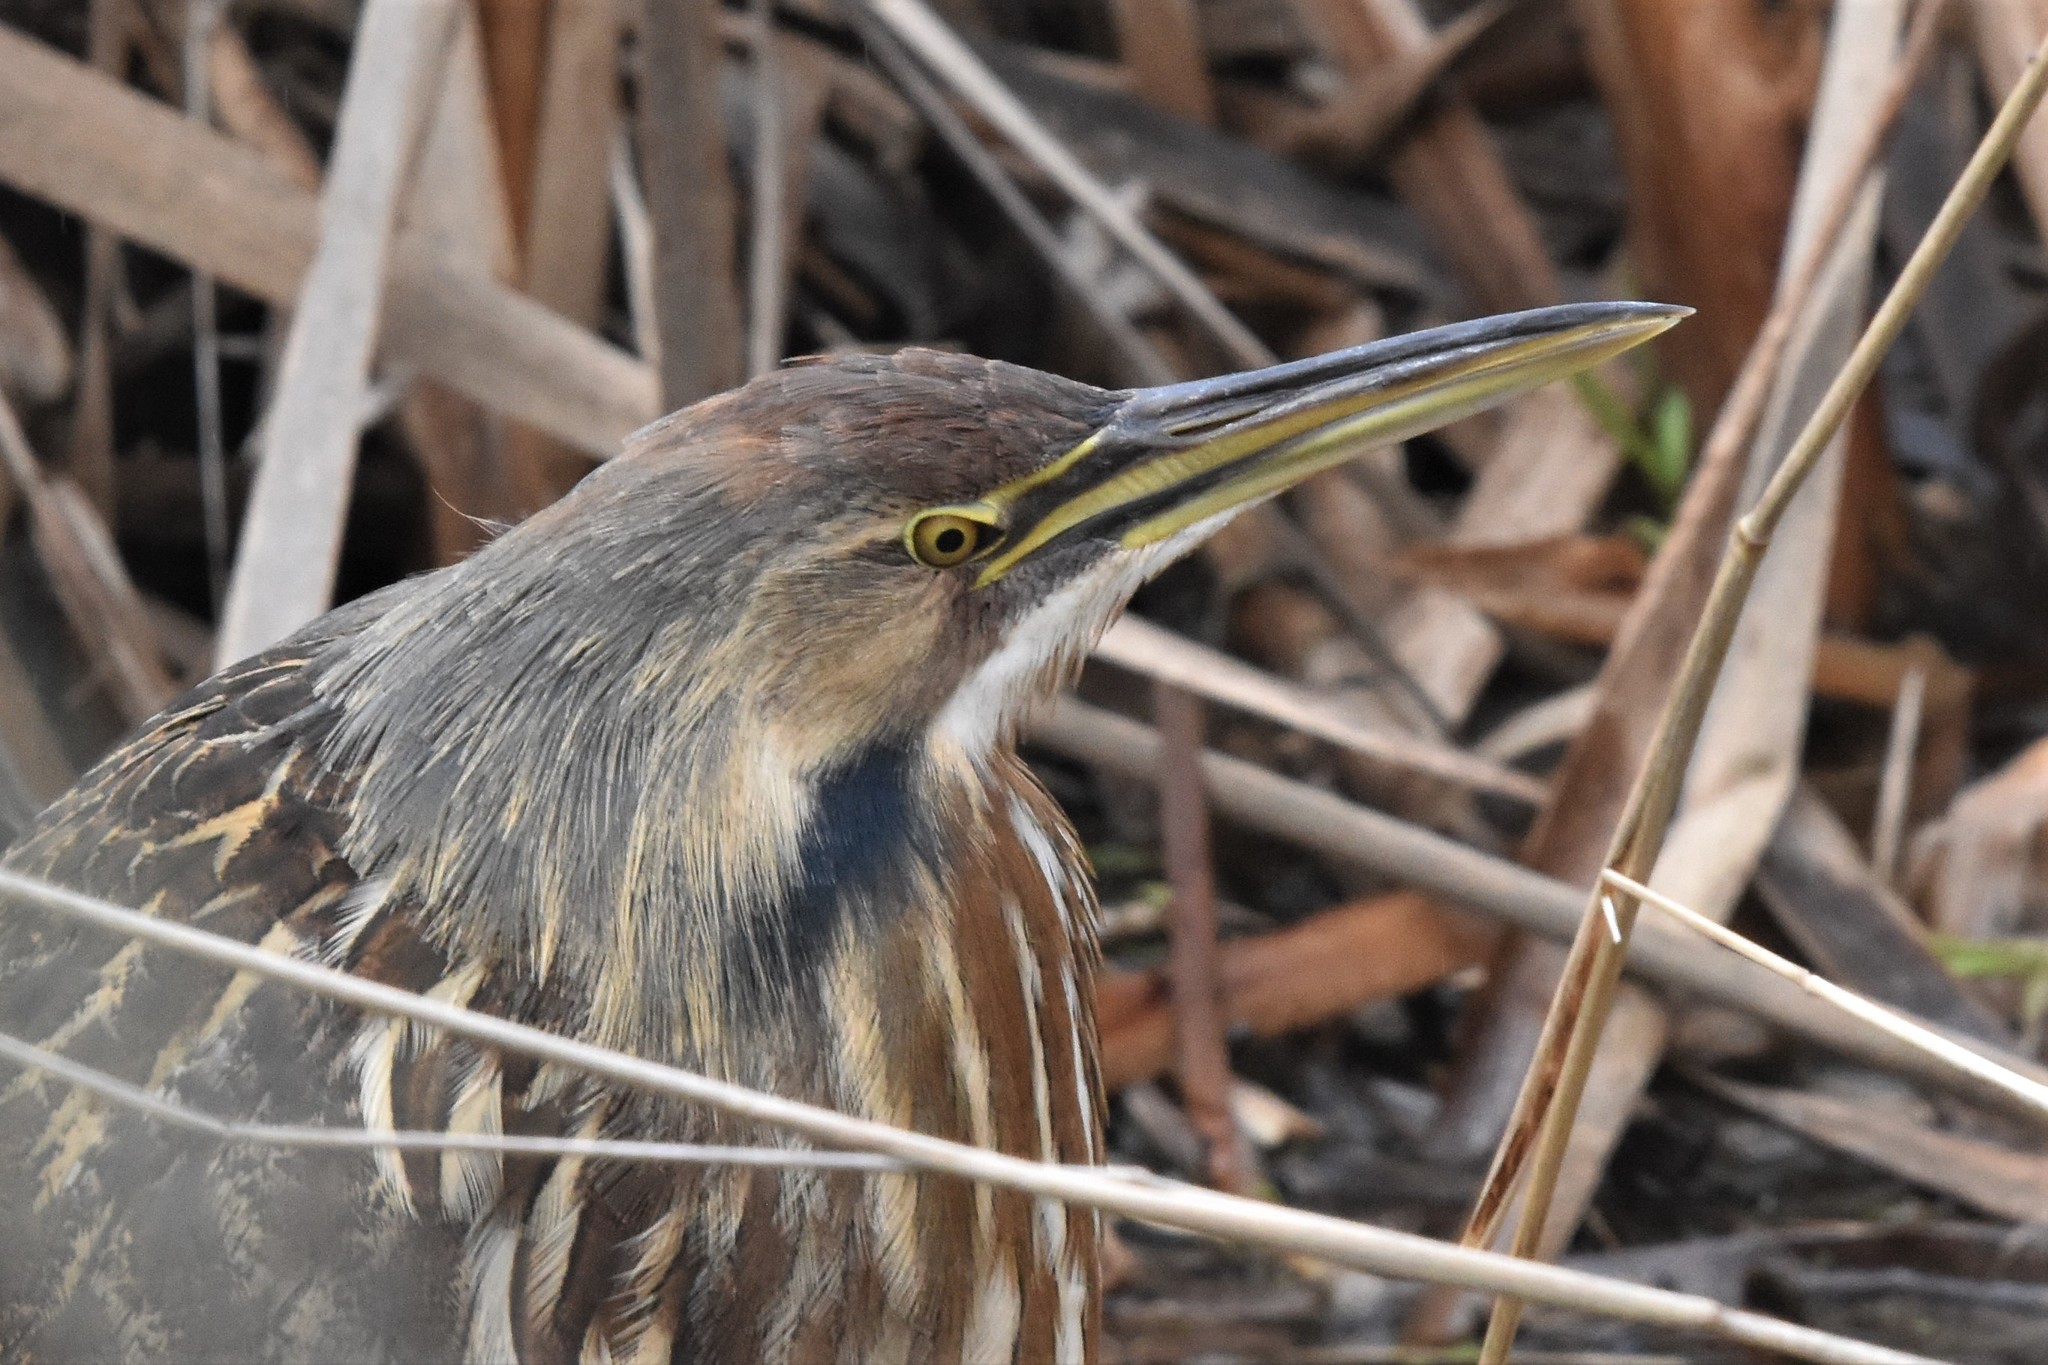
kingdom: Animalia
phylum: Chordata
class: Aves
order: Pelecaniformes
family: Ardeidae
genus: Botaurus
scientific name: Botaurus lentiginosus
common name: American bittern
